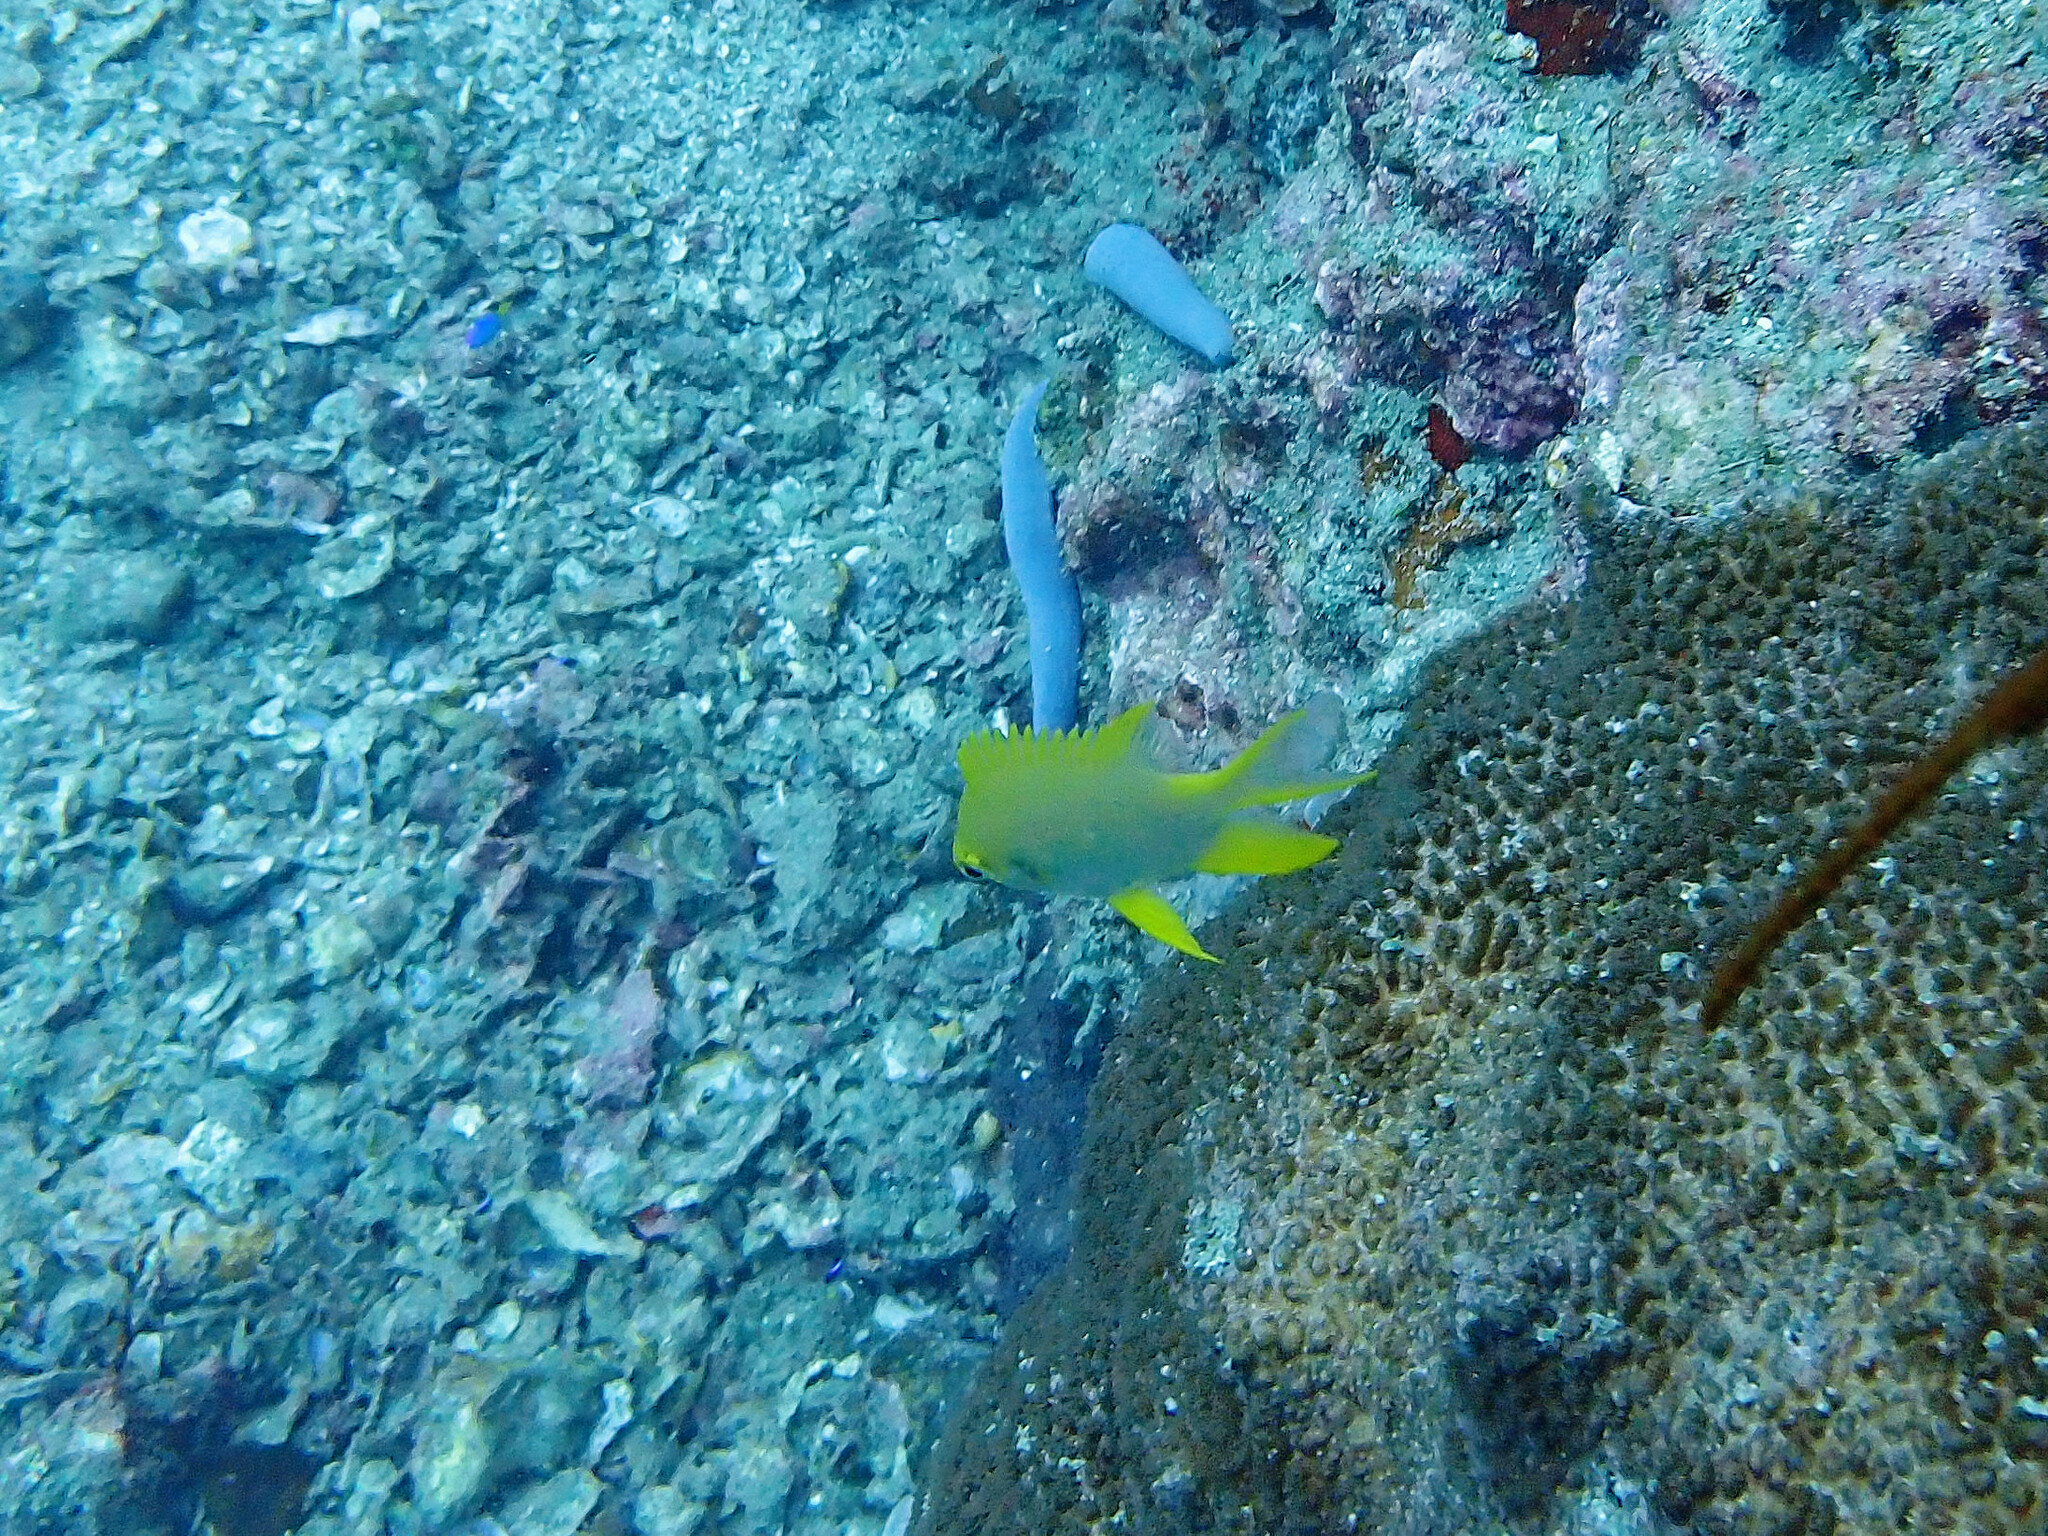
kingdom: Animalia
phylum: Chordata
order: Perciformes
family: Pomacentridae
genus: Amblyglyphidodon
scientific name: Amblyglyphidodon aureus
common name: Golden damsel
